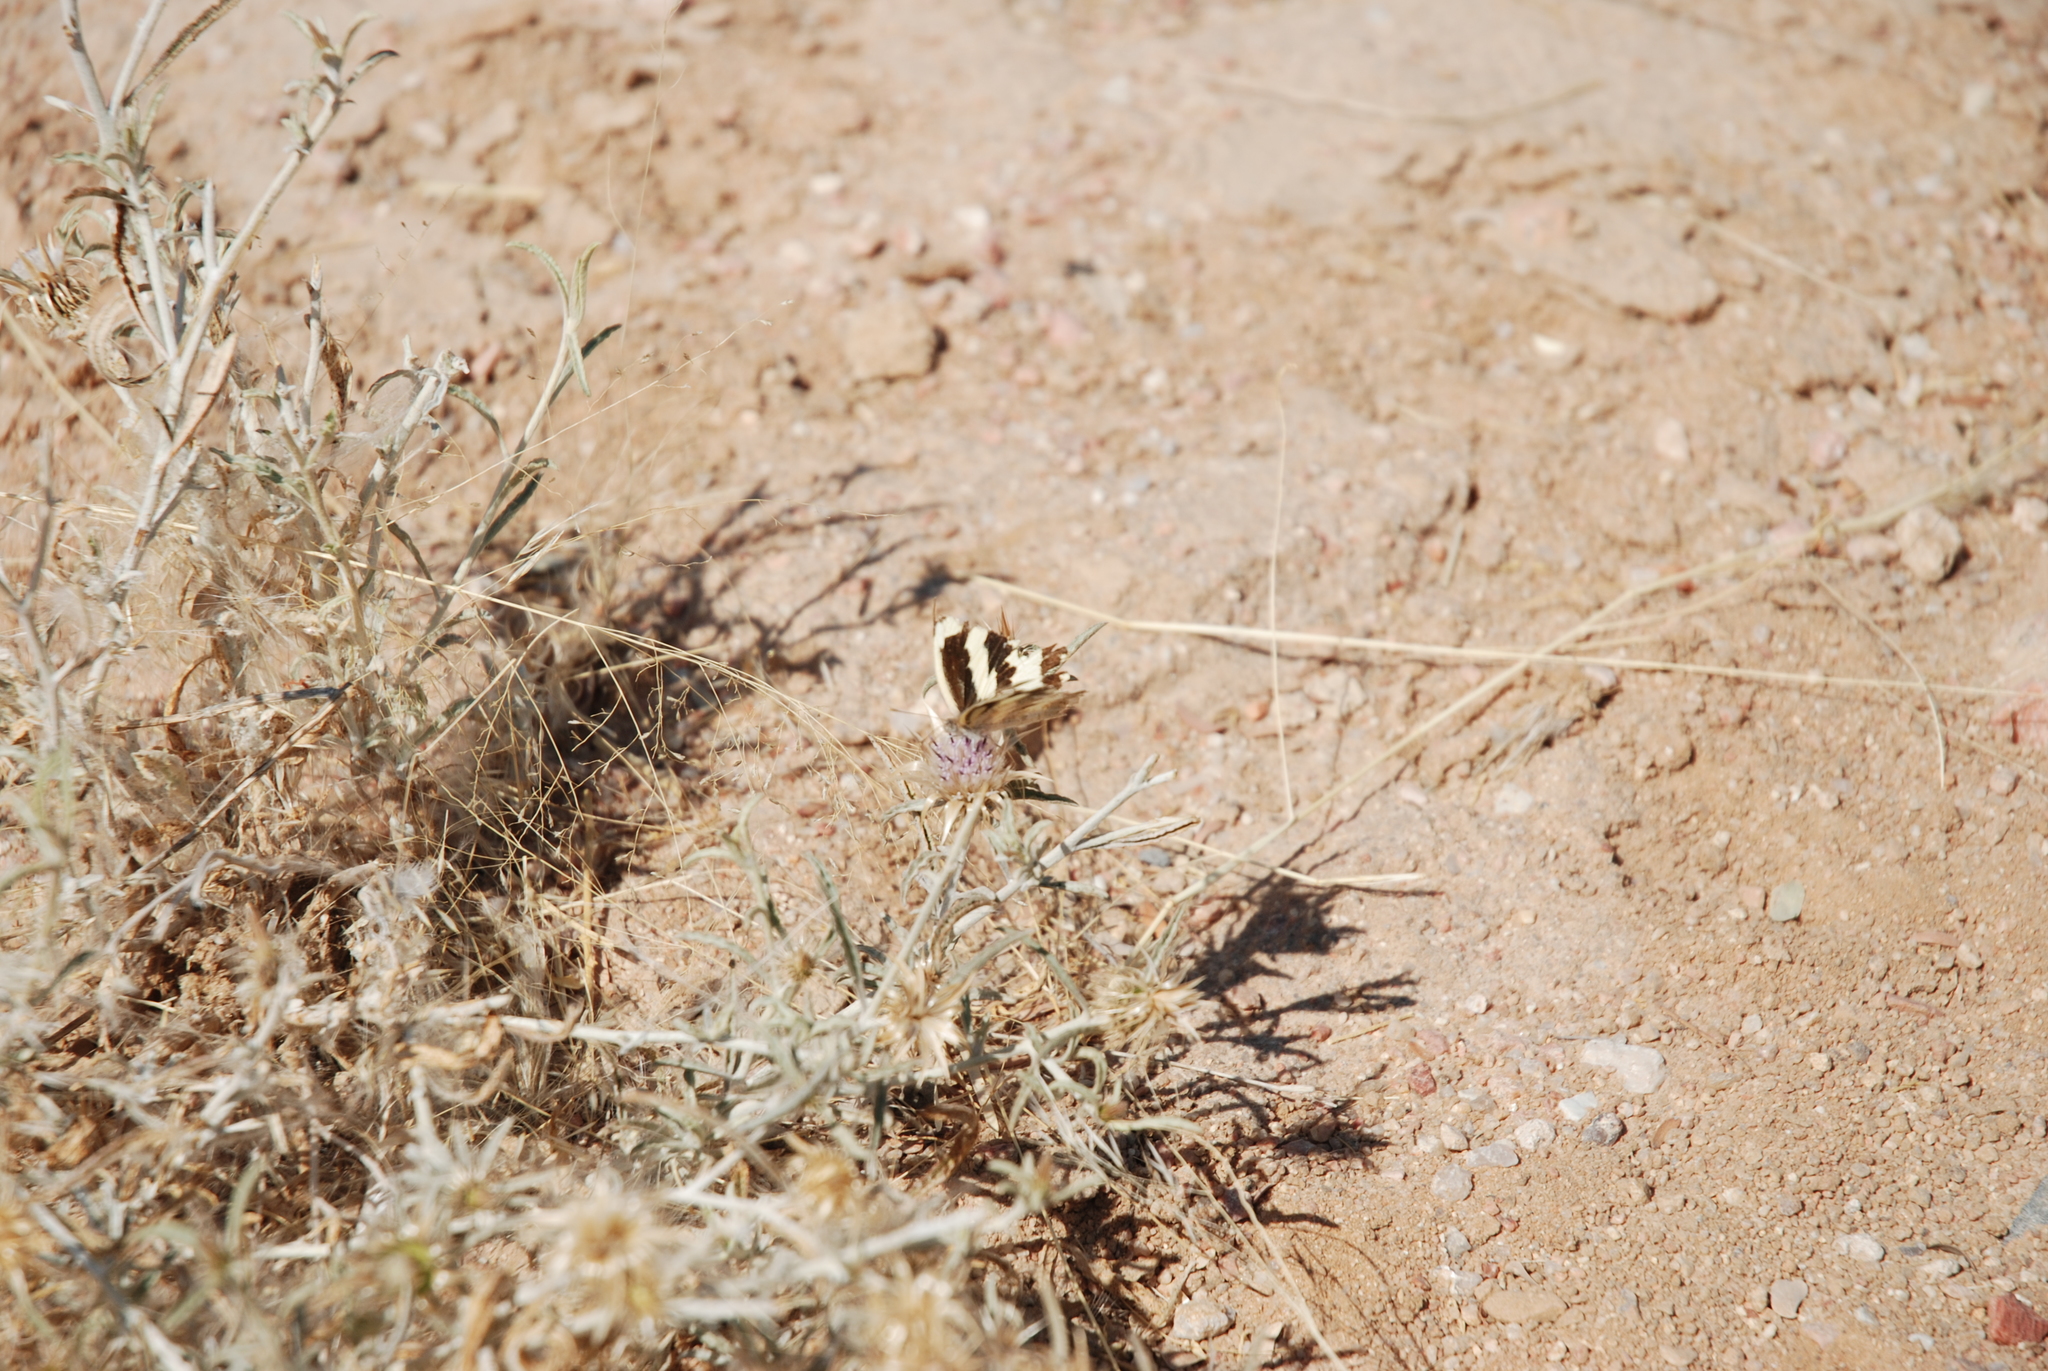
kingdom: Animalia
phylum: Arthropoda
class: Insecta
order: Lepidoptera
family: Pieridae
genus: Pinacopteryx
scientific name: Pinacopteryx eriphia
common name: Zebra white
